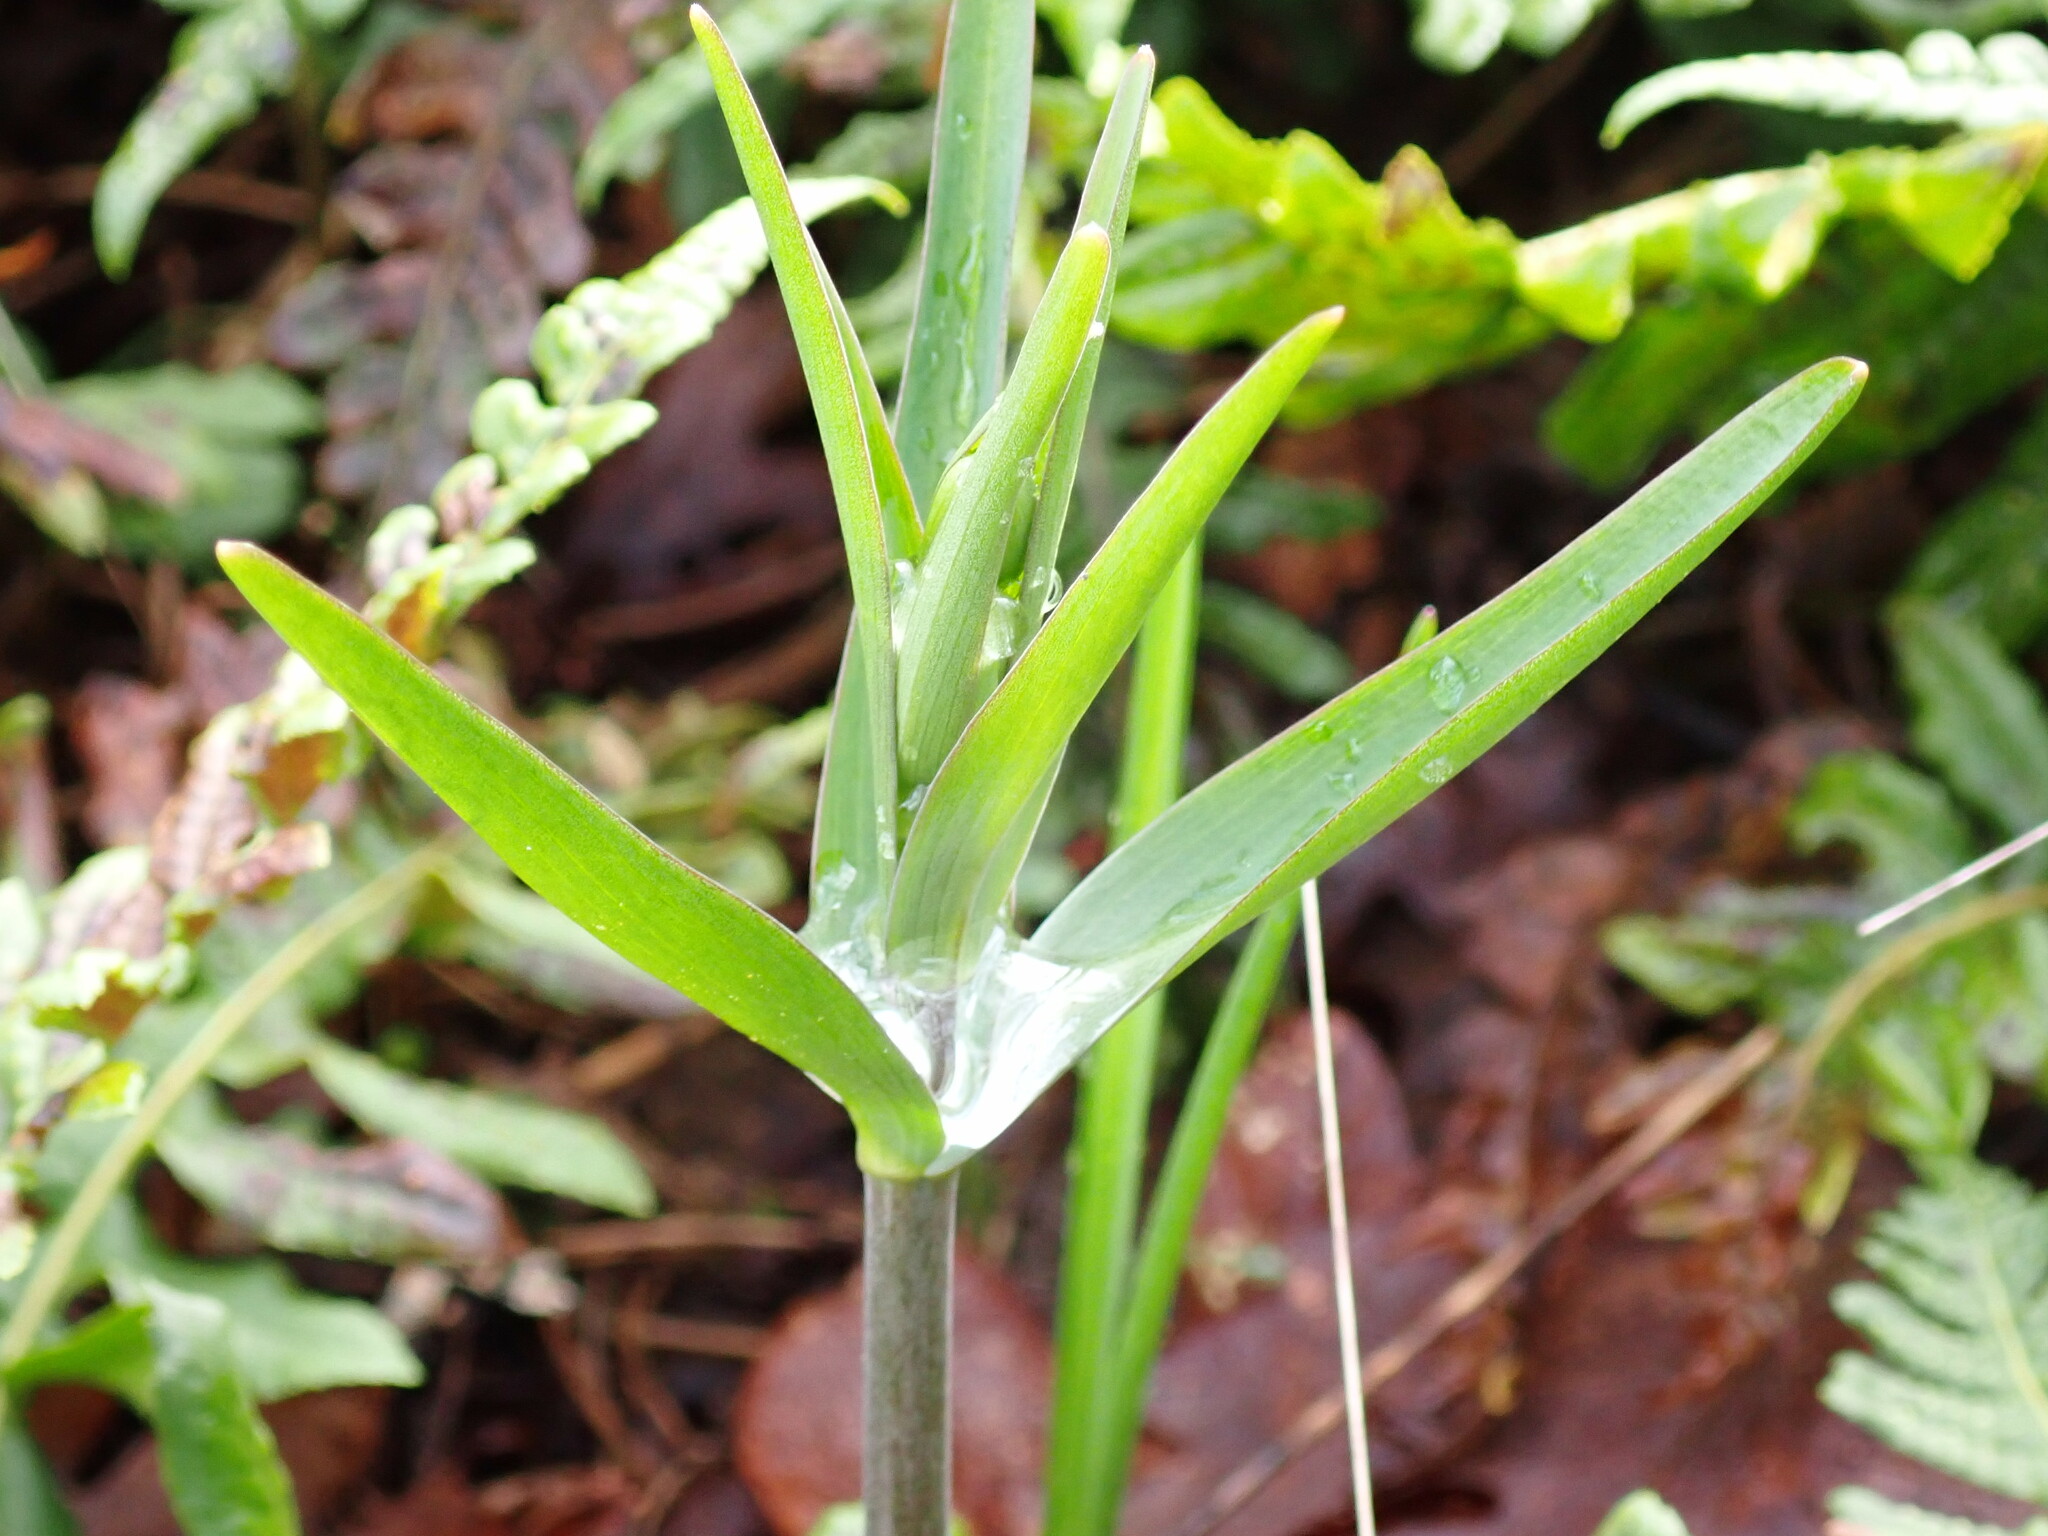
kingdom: Plantae
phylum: Tracheophyta
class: Liliopsida
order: Liliales
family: Liliaceae
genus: Fritillaria
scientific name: Fritillaria affinis
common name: Ojai fritillary
